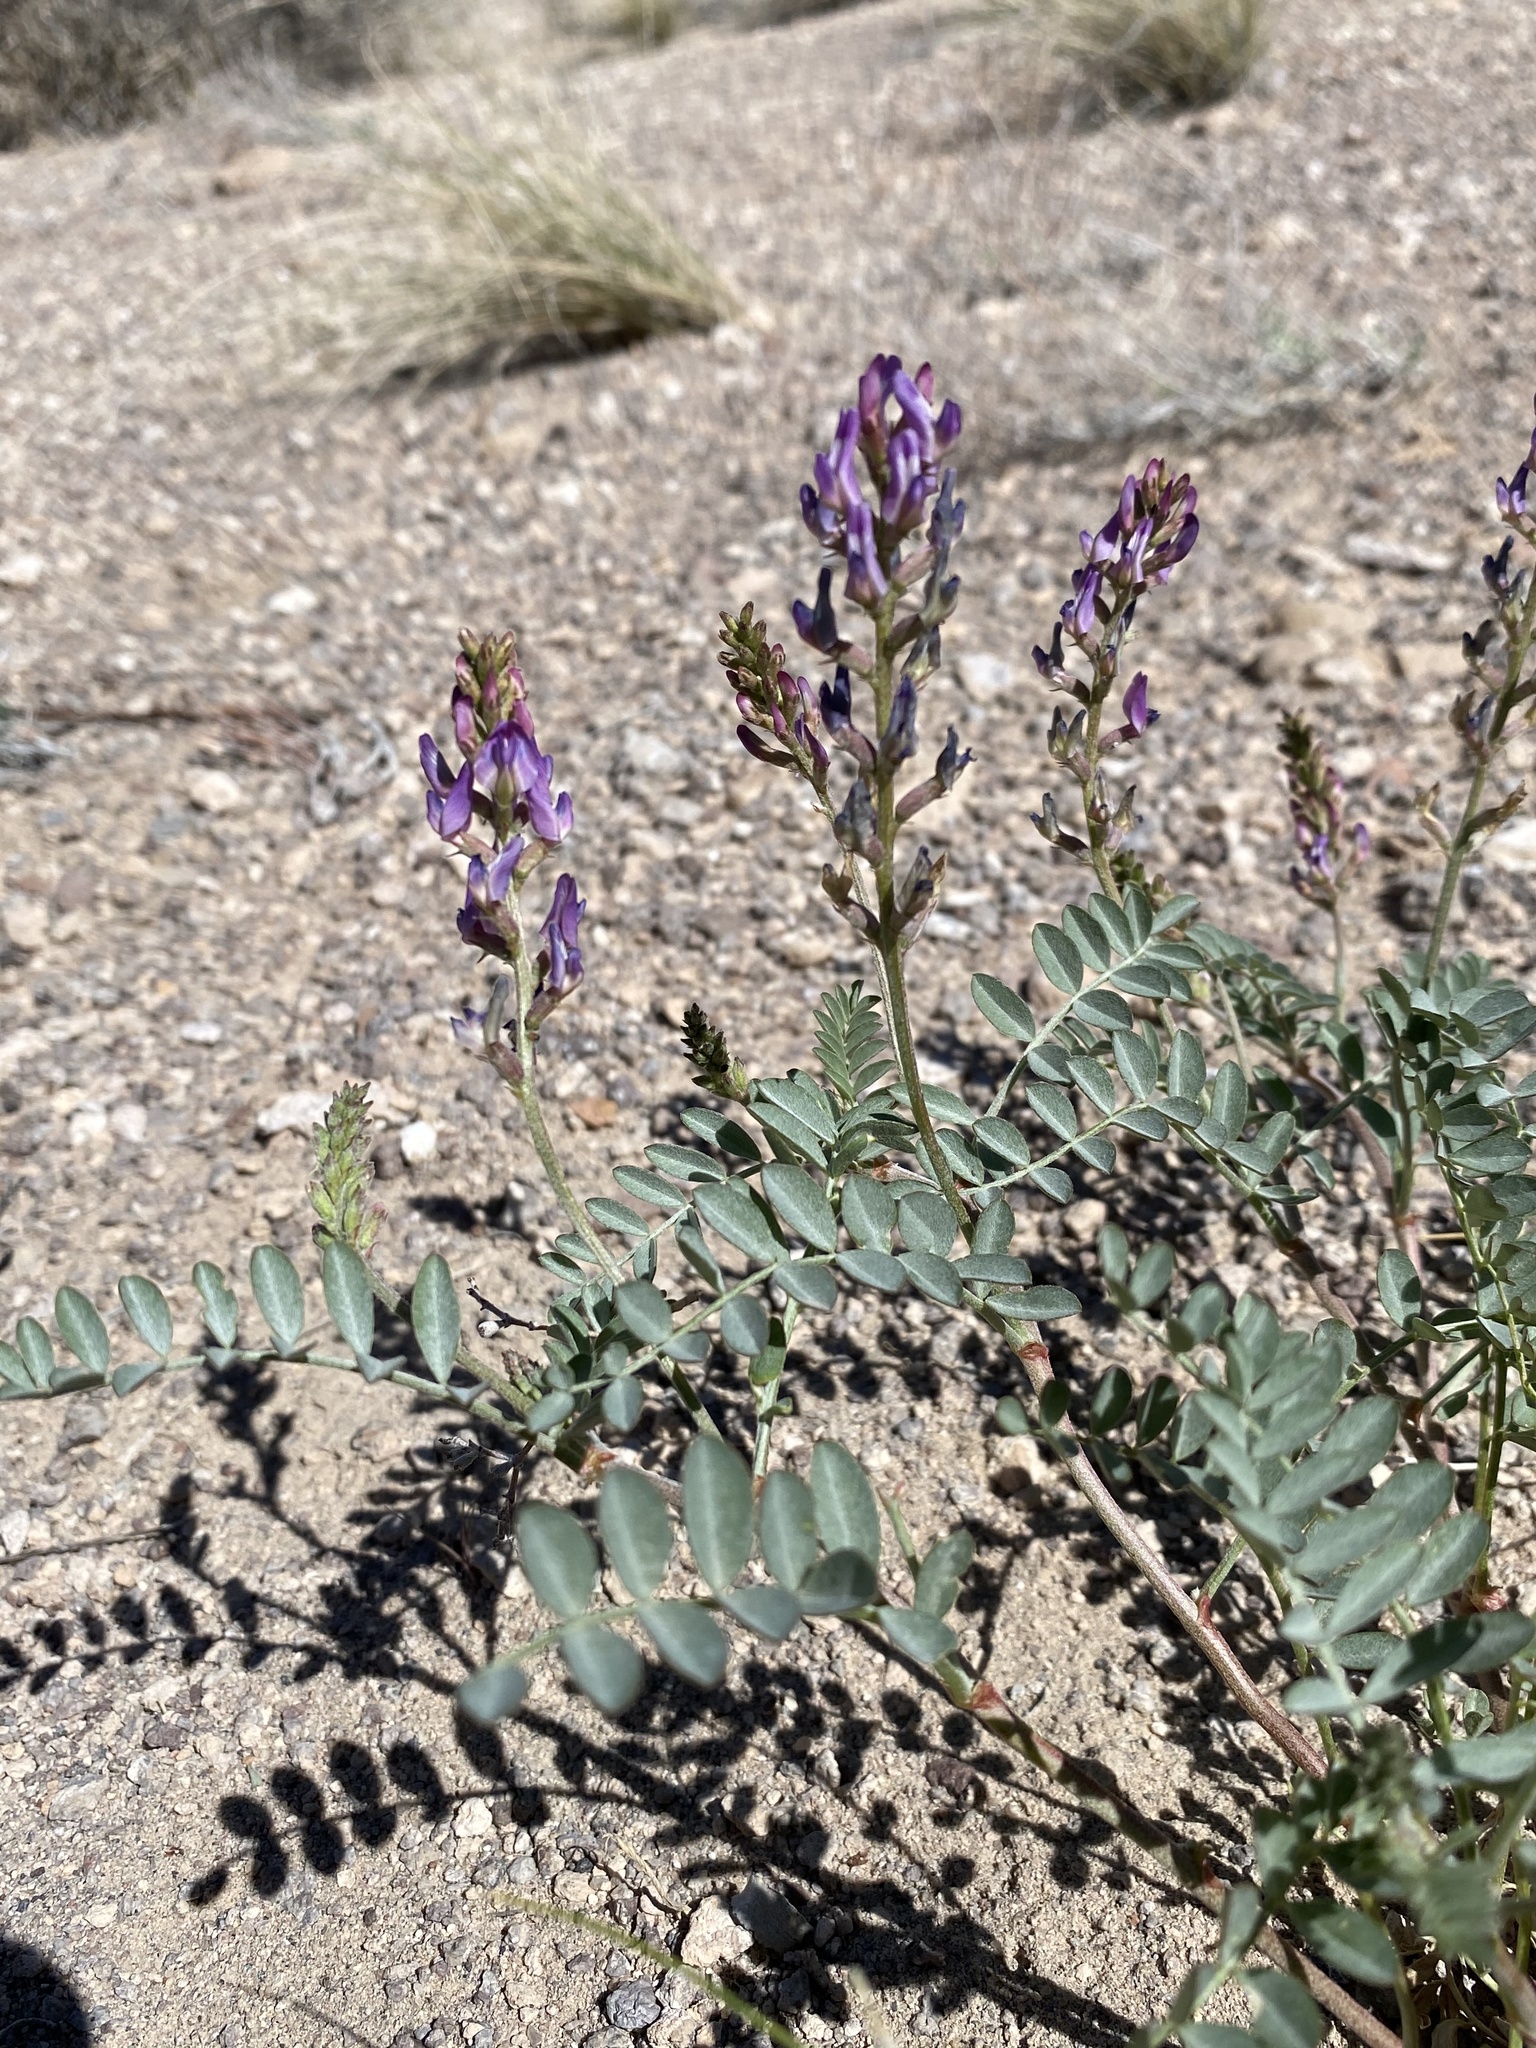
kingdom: Plantae
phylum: Tracheophyta
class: Magnoliopsida
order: Fabales
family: Fabaceae
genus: Astragalus
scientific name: Astragalus lentiginosus
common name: Freckled milkvetch
